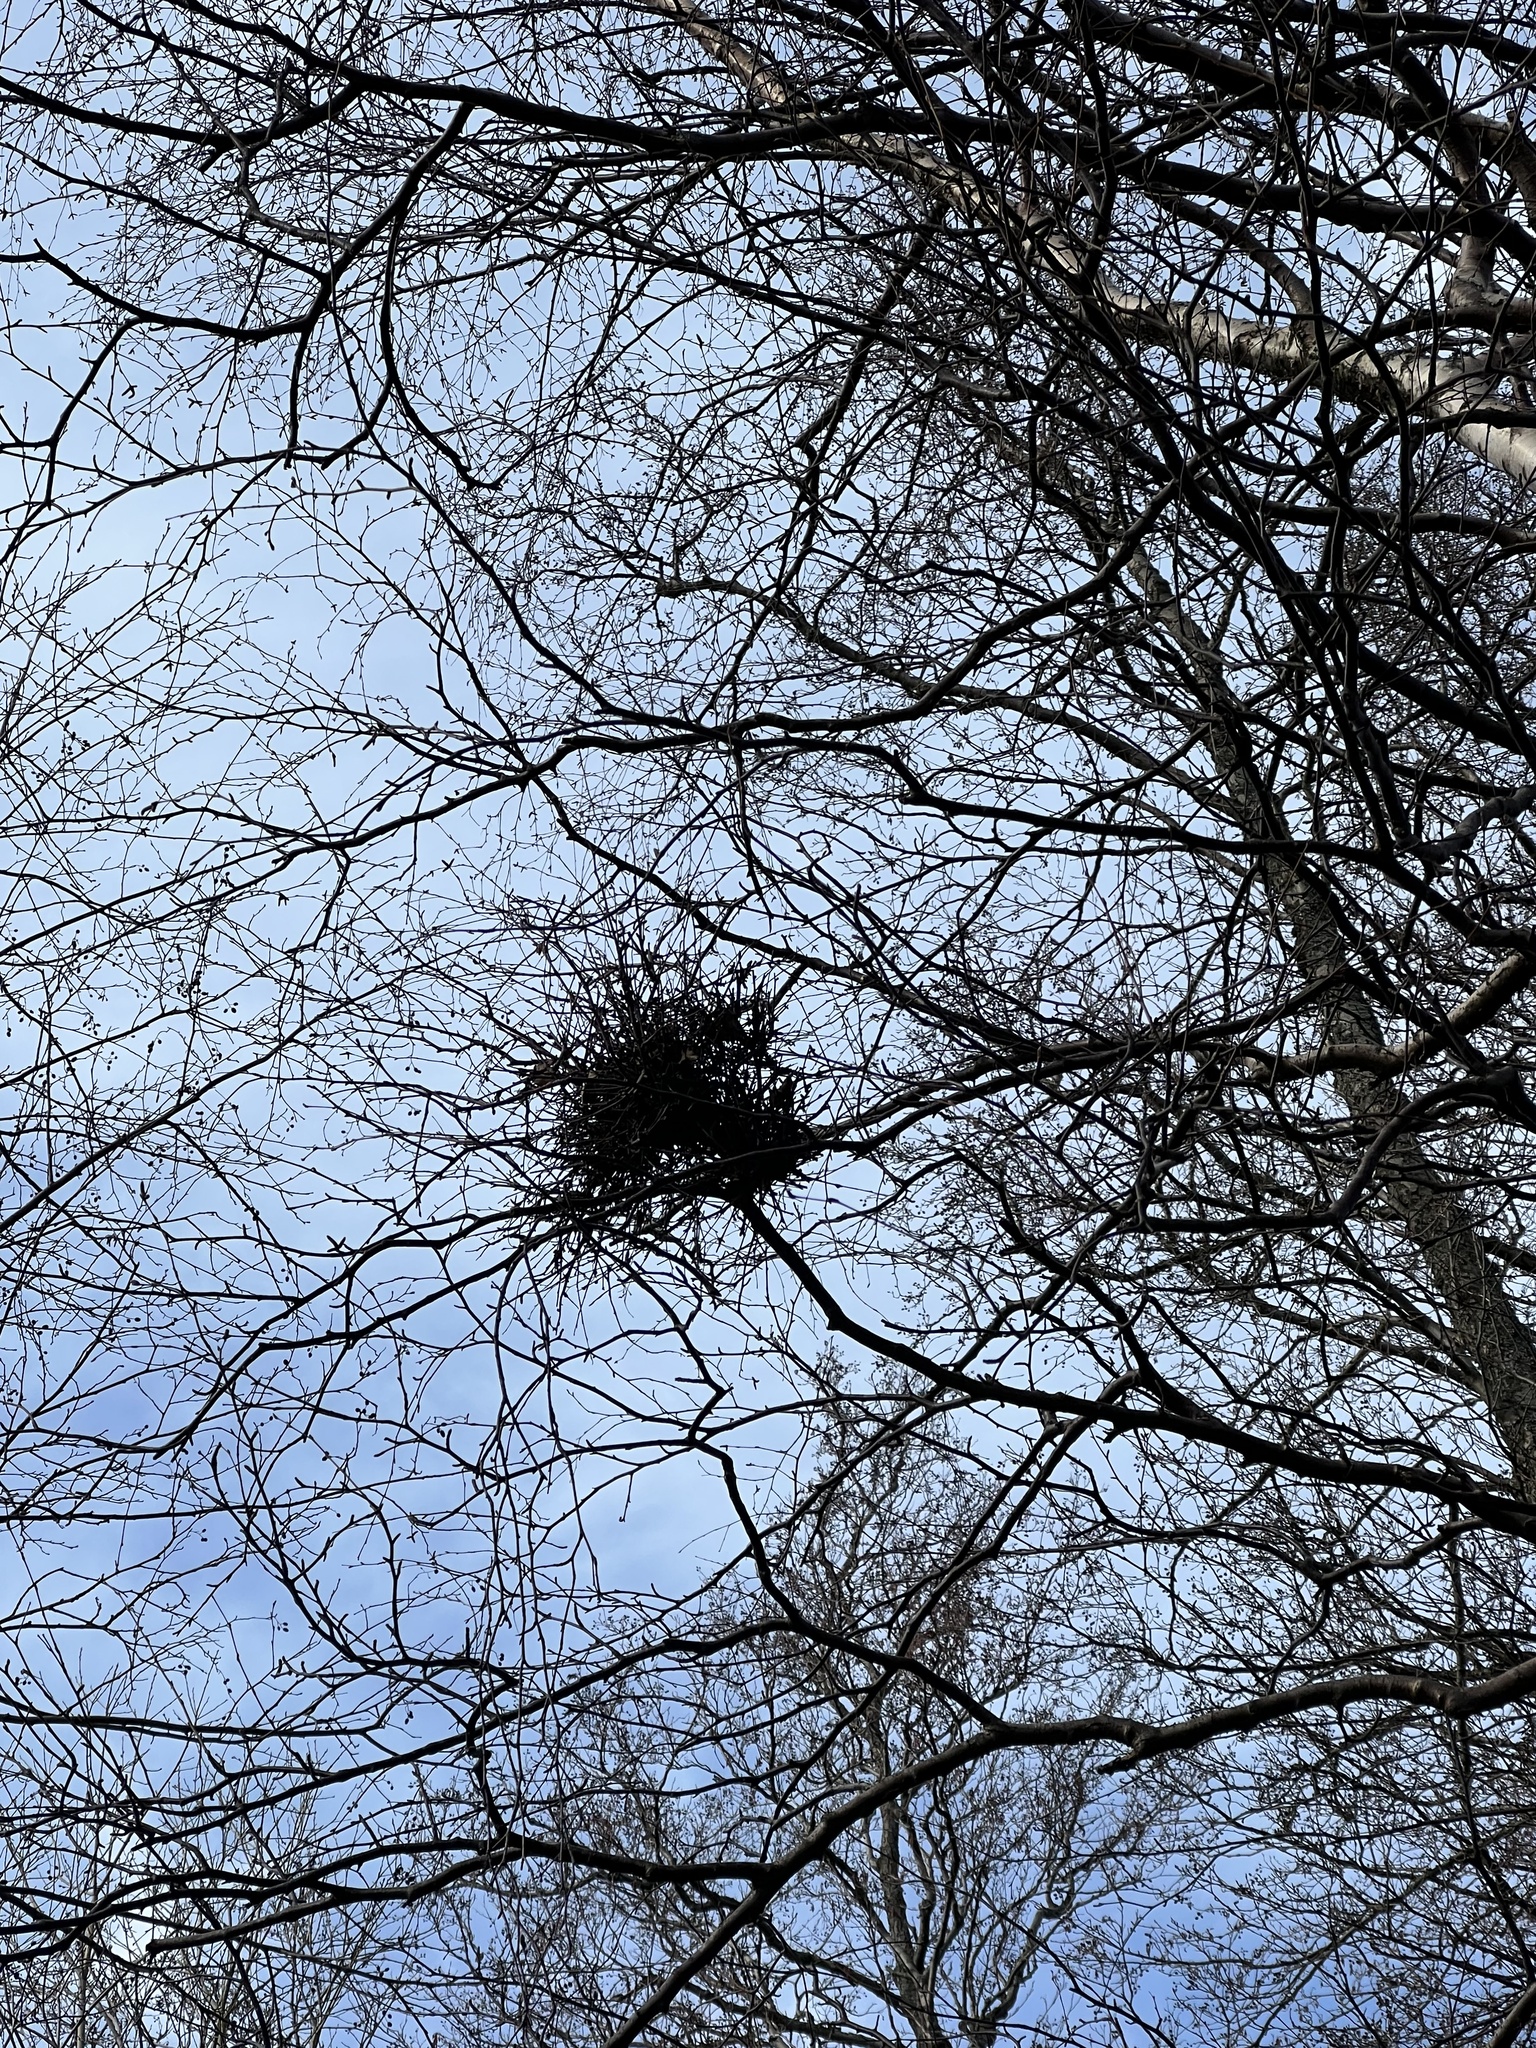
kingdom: Fungi
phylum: Ascomycota
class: Taphrinomycetes
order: Taphrinales
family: Taphrinaceae
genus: Taphrina
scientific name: Taphrina betulina
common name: Birch besom
